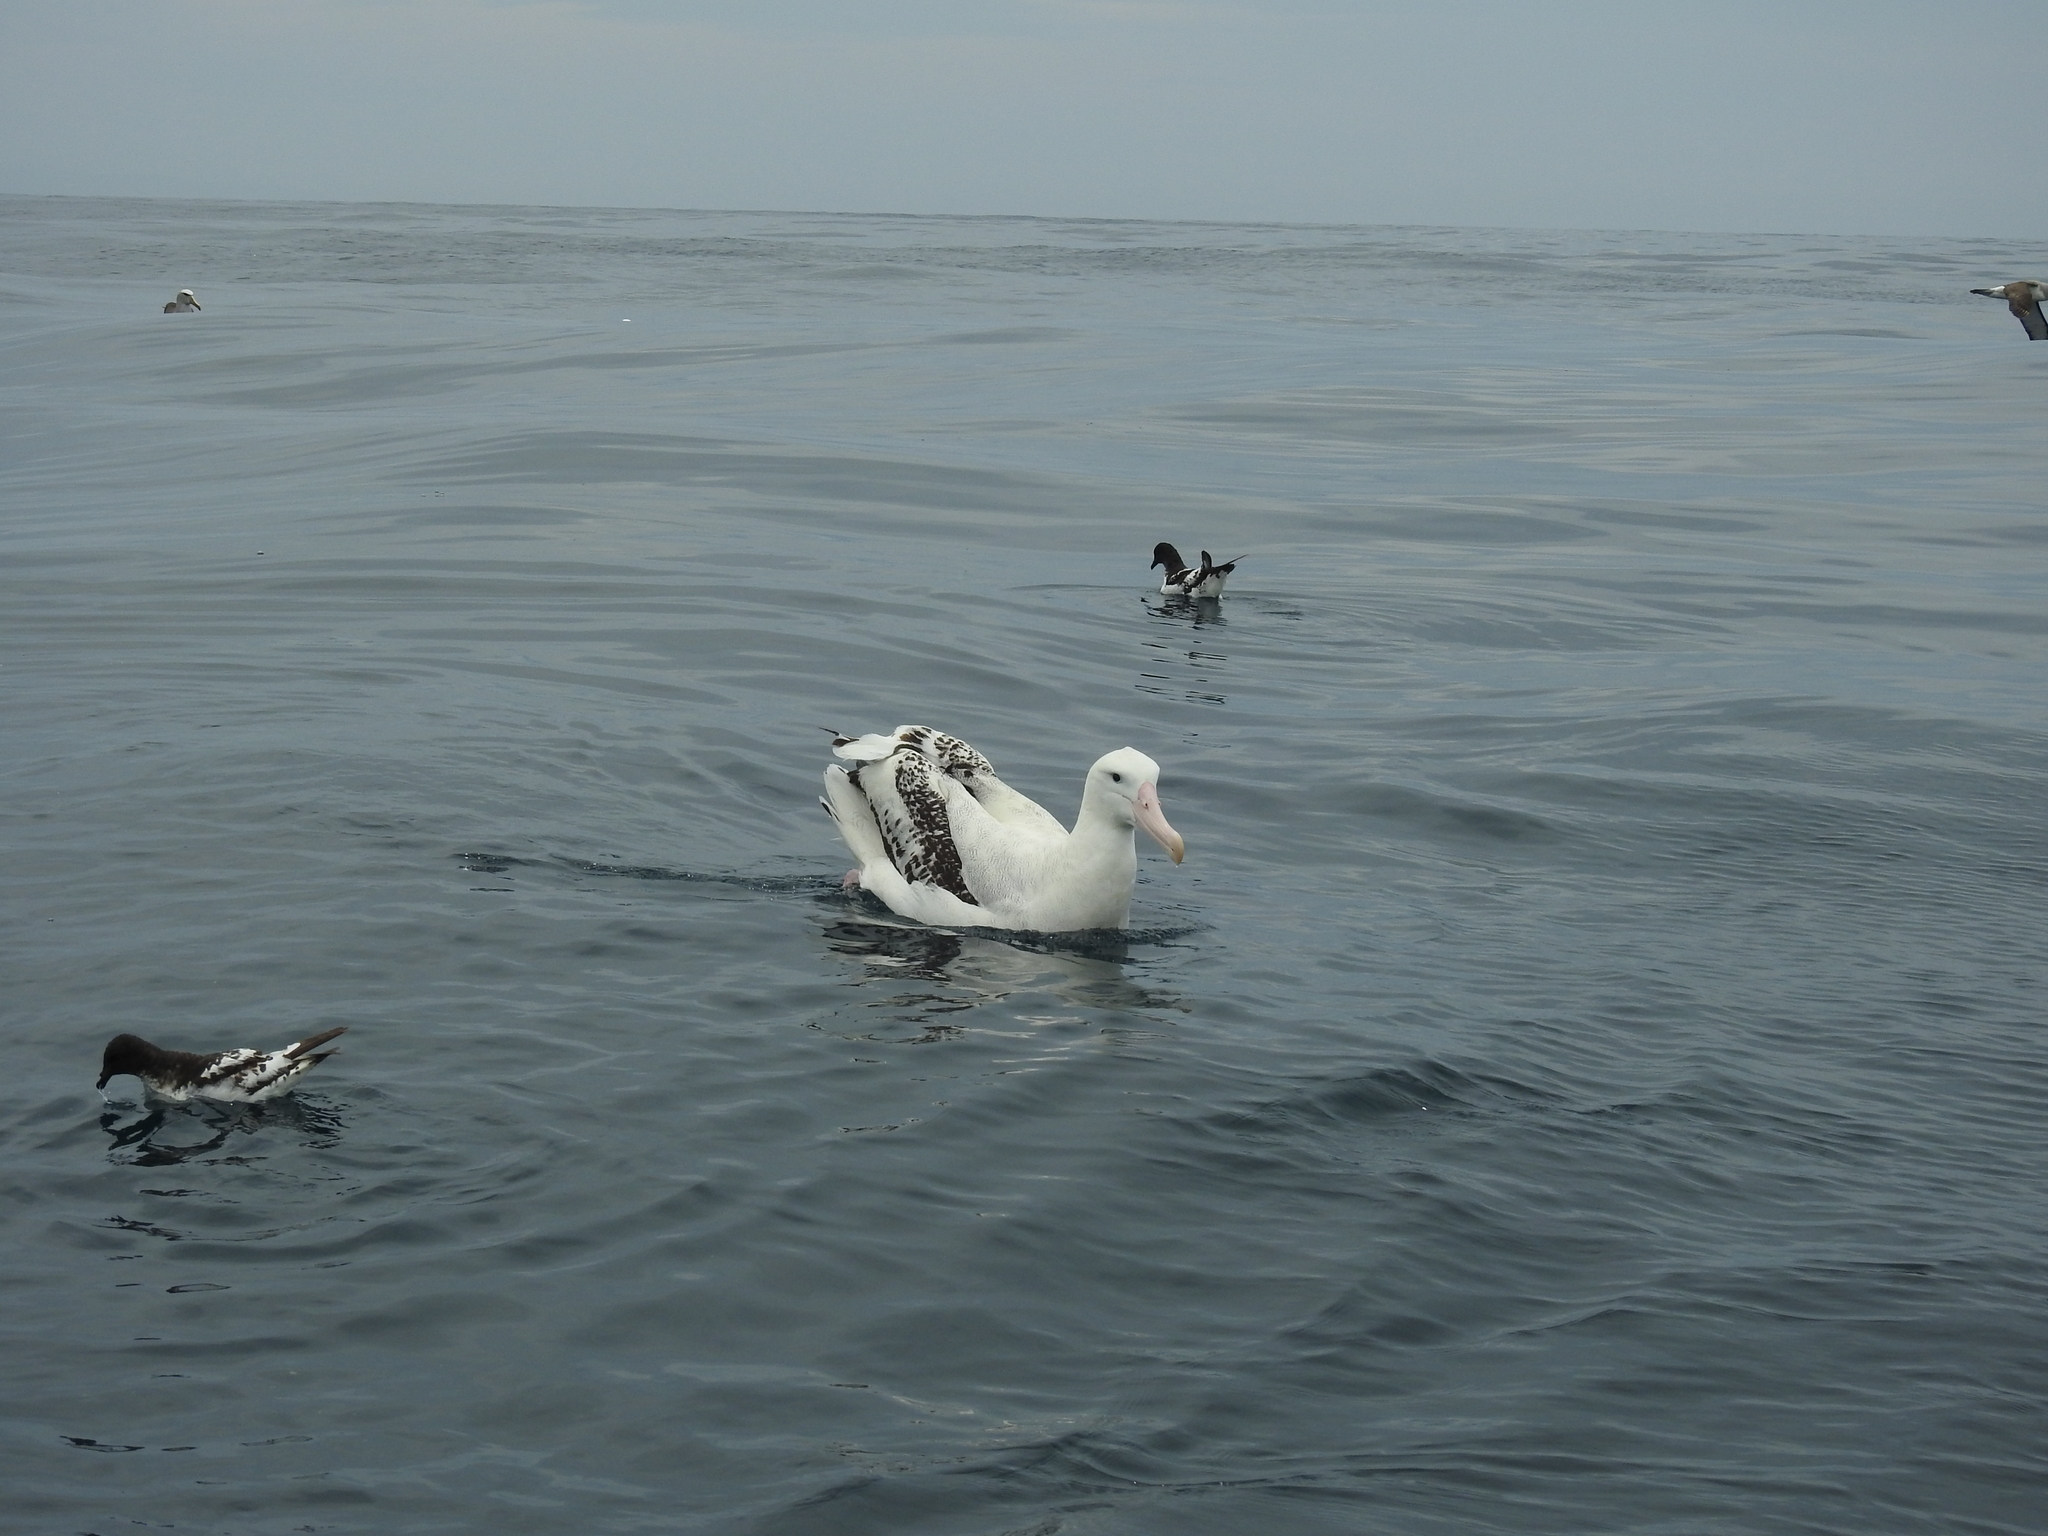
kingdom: Animalia
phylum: Chordata
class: Aves
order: Procellariiformes
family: Diomedeidae
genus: Diomedea
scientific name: Diomedea antipodensis
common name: Antipodean albatross
